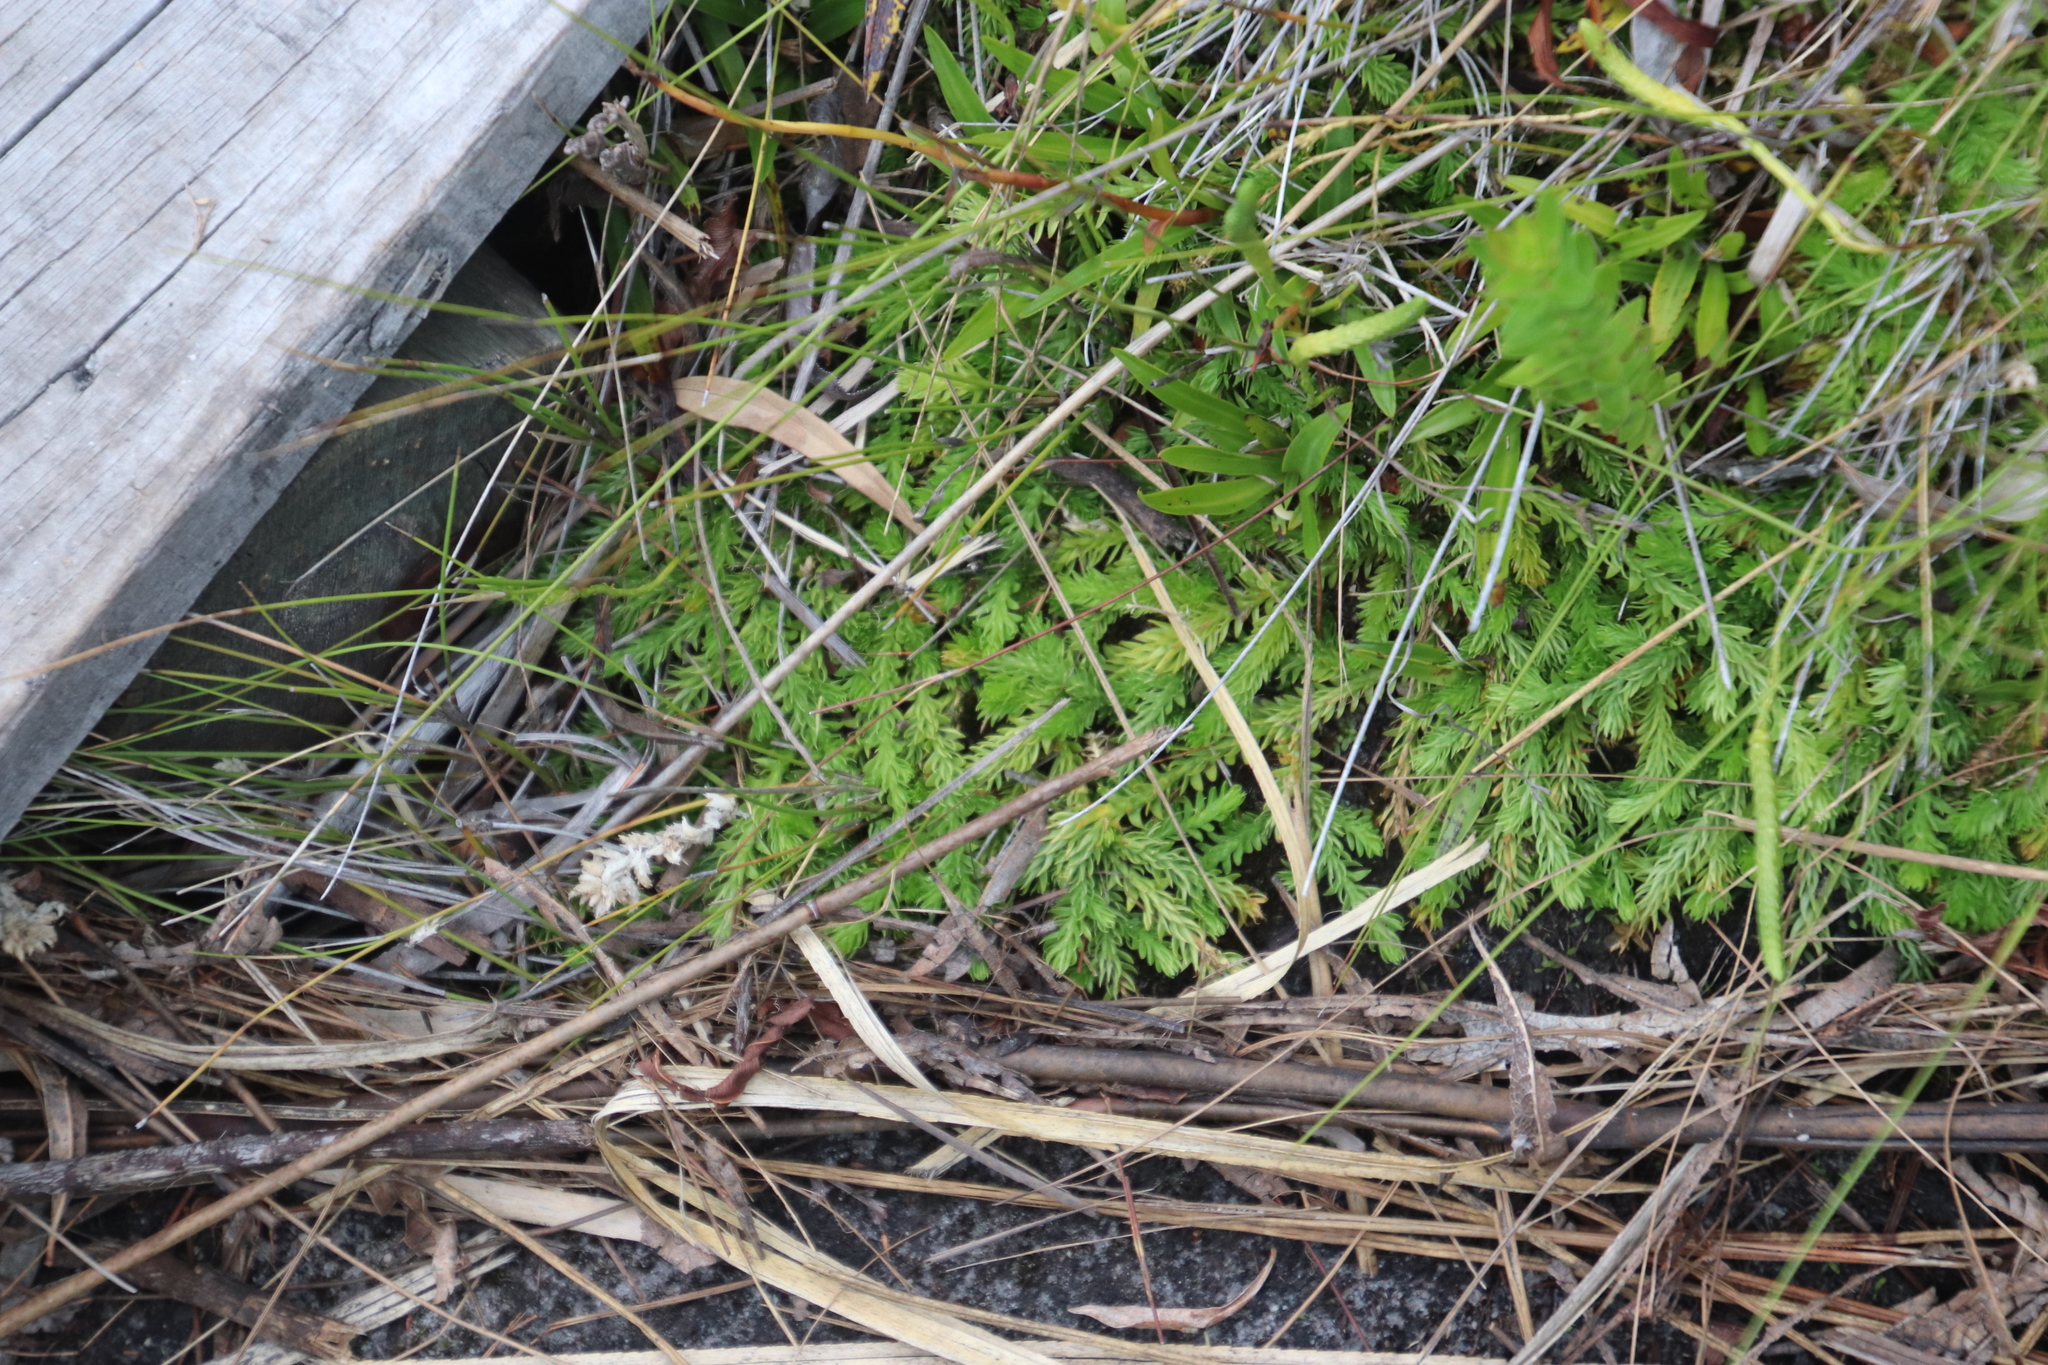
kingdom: Plantae
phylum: Tracheophyta
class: Lycopodiopsida
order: Lycopodiales
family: Lycopodiaceae
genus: Pseudolycopodiella
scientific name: Pseudolycopodiella caroliniana
